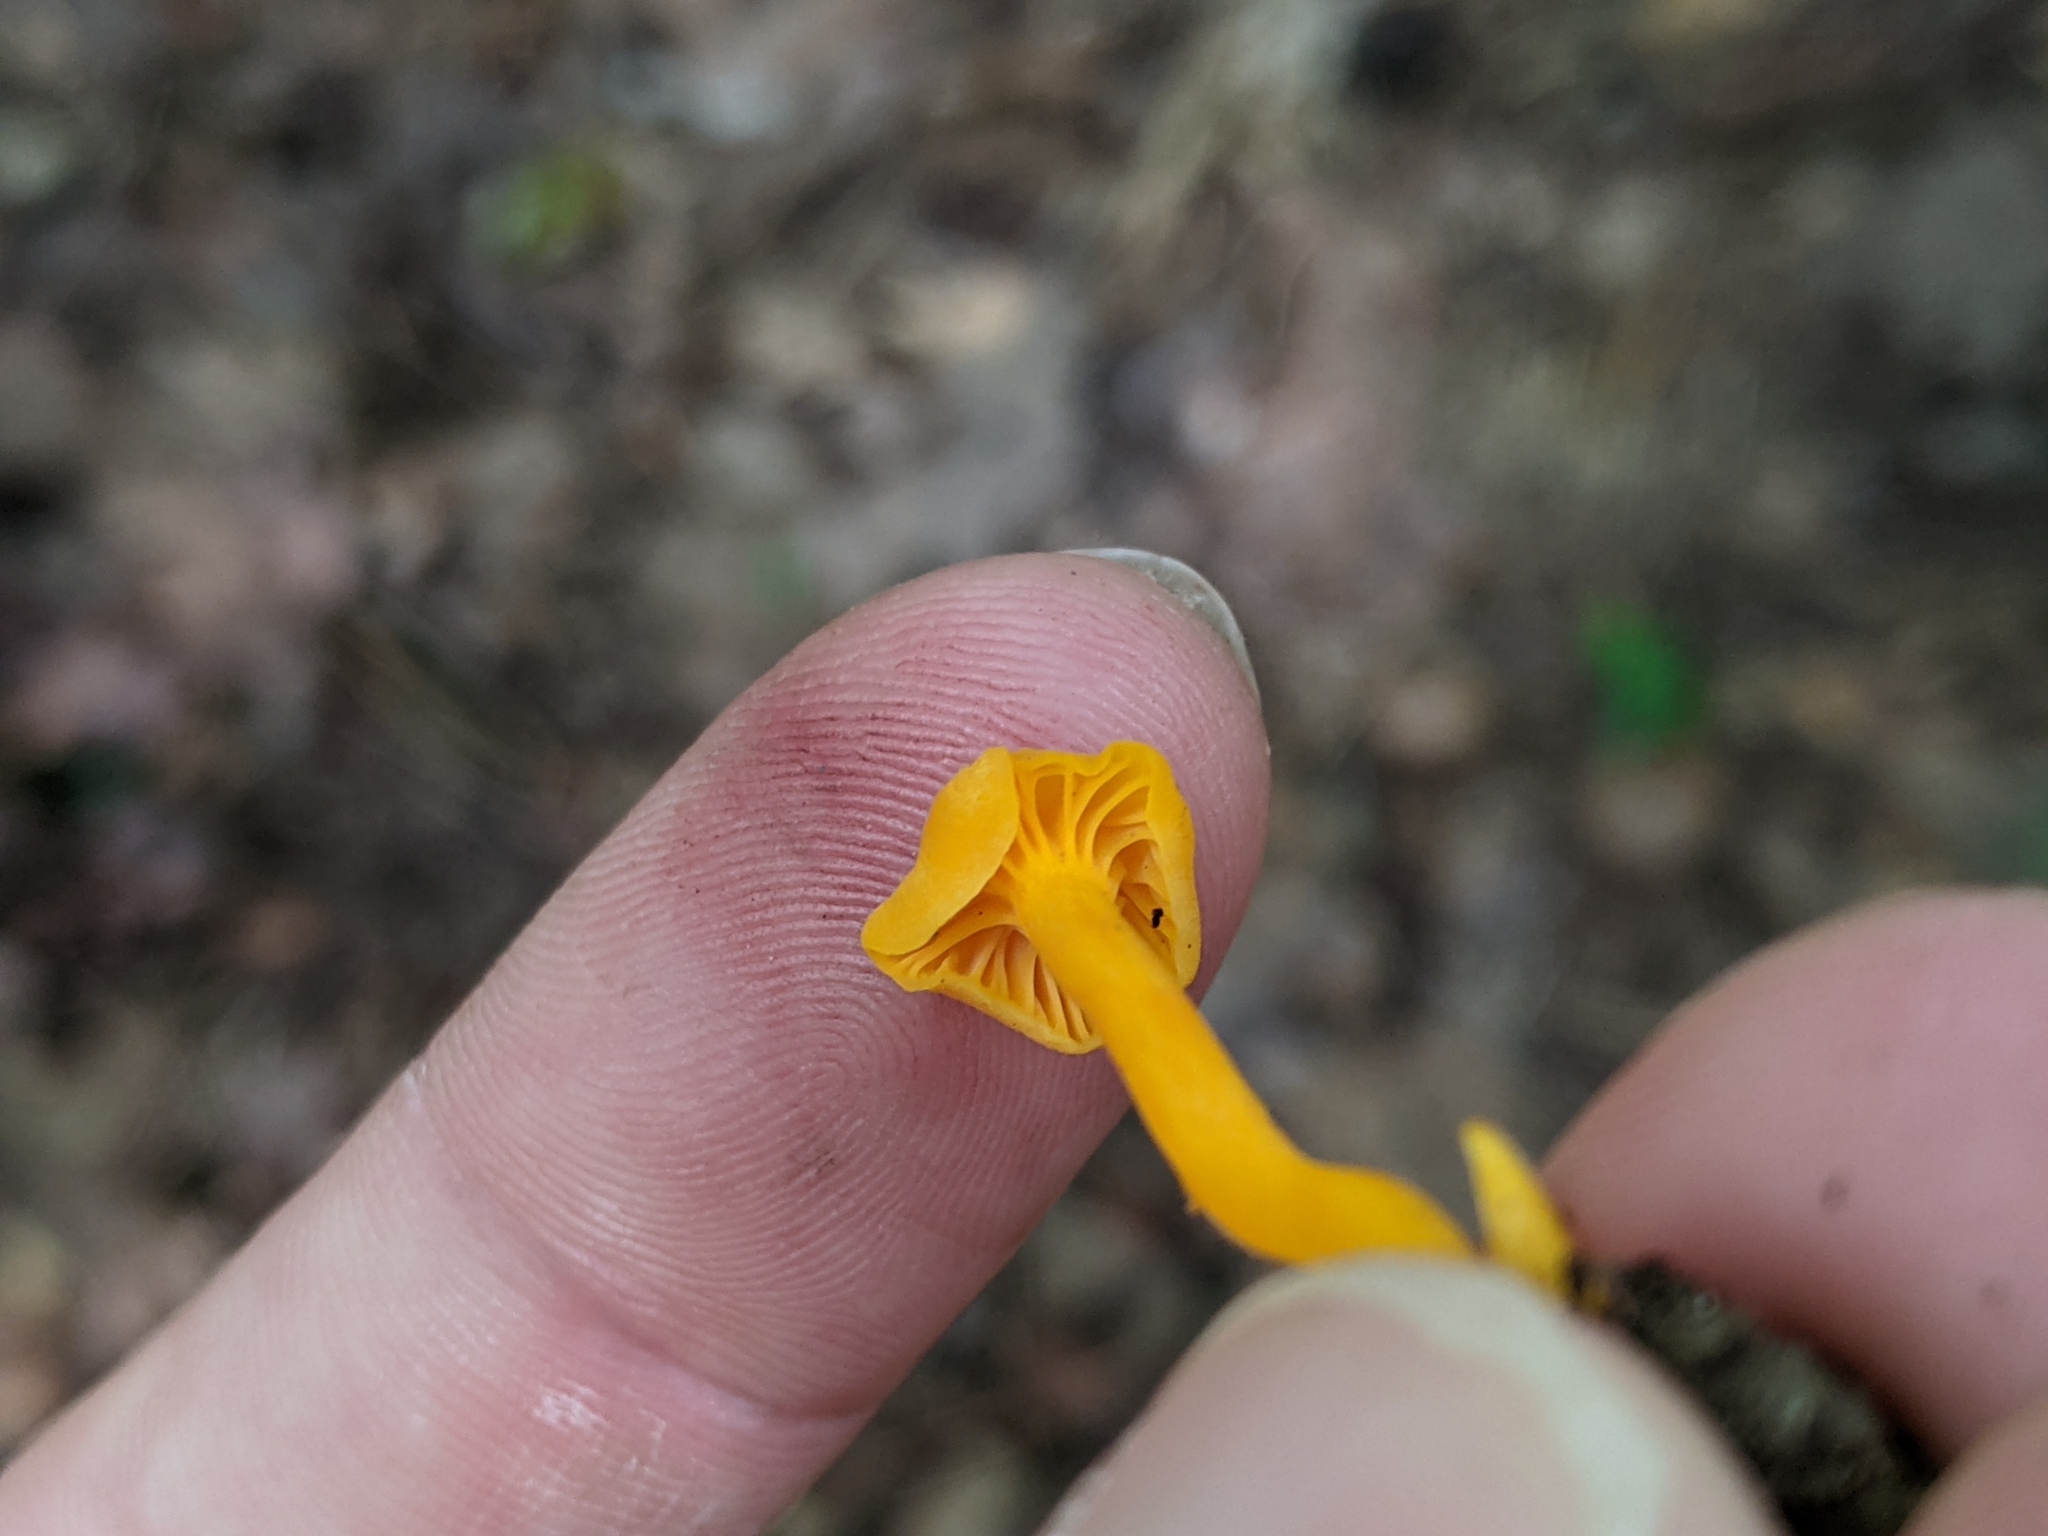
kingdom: Fungi
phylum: Basidiomycota
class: Agaricomycetes
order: Cantharellales
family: Hydnaceae
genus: Cantharellus
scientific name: Cantharellus minor
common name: Small chanterelle
